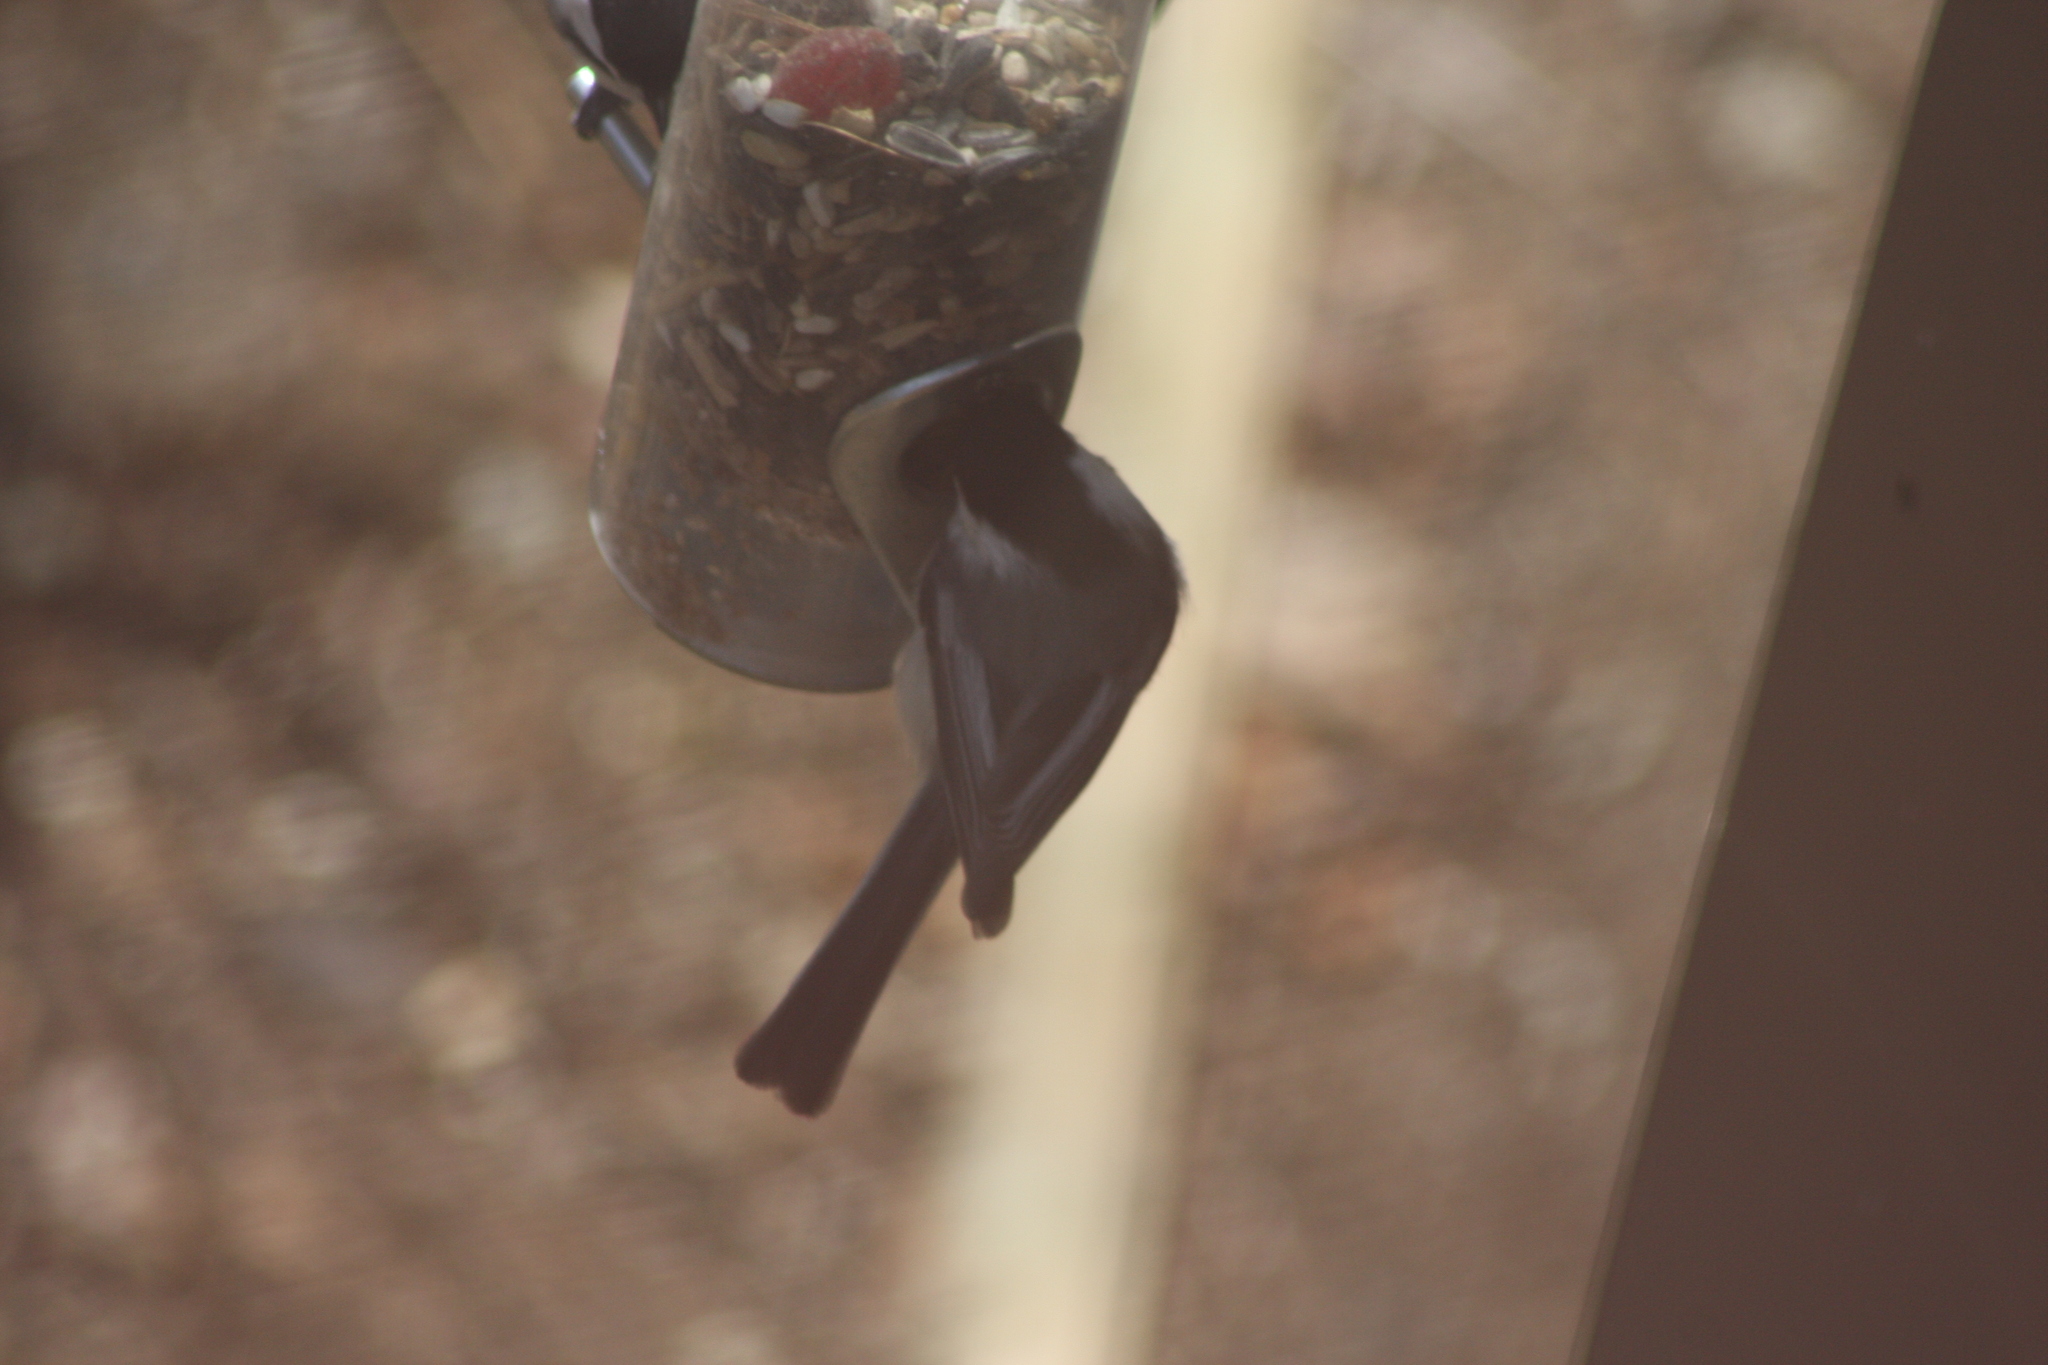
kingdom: Animalia
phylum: Chordata
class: Aves
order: Passeriformes
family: Paridae
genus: Poecile
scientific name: Poecile atricapillus
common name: Black-capped chickadee
